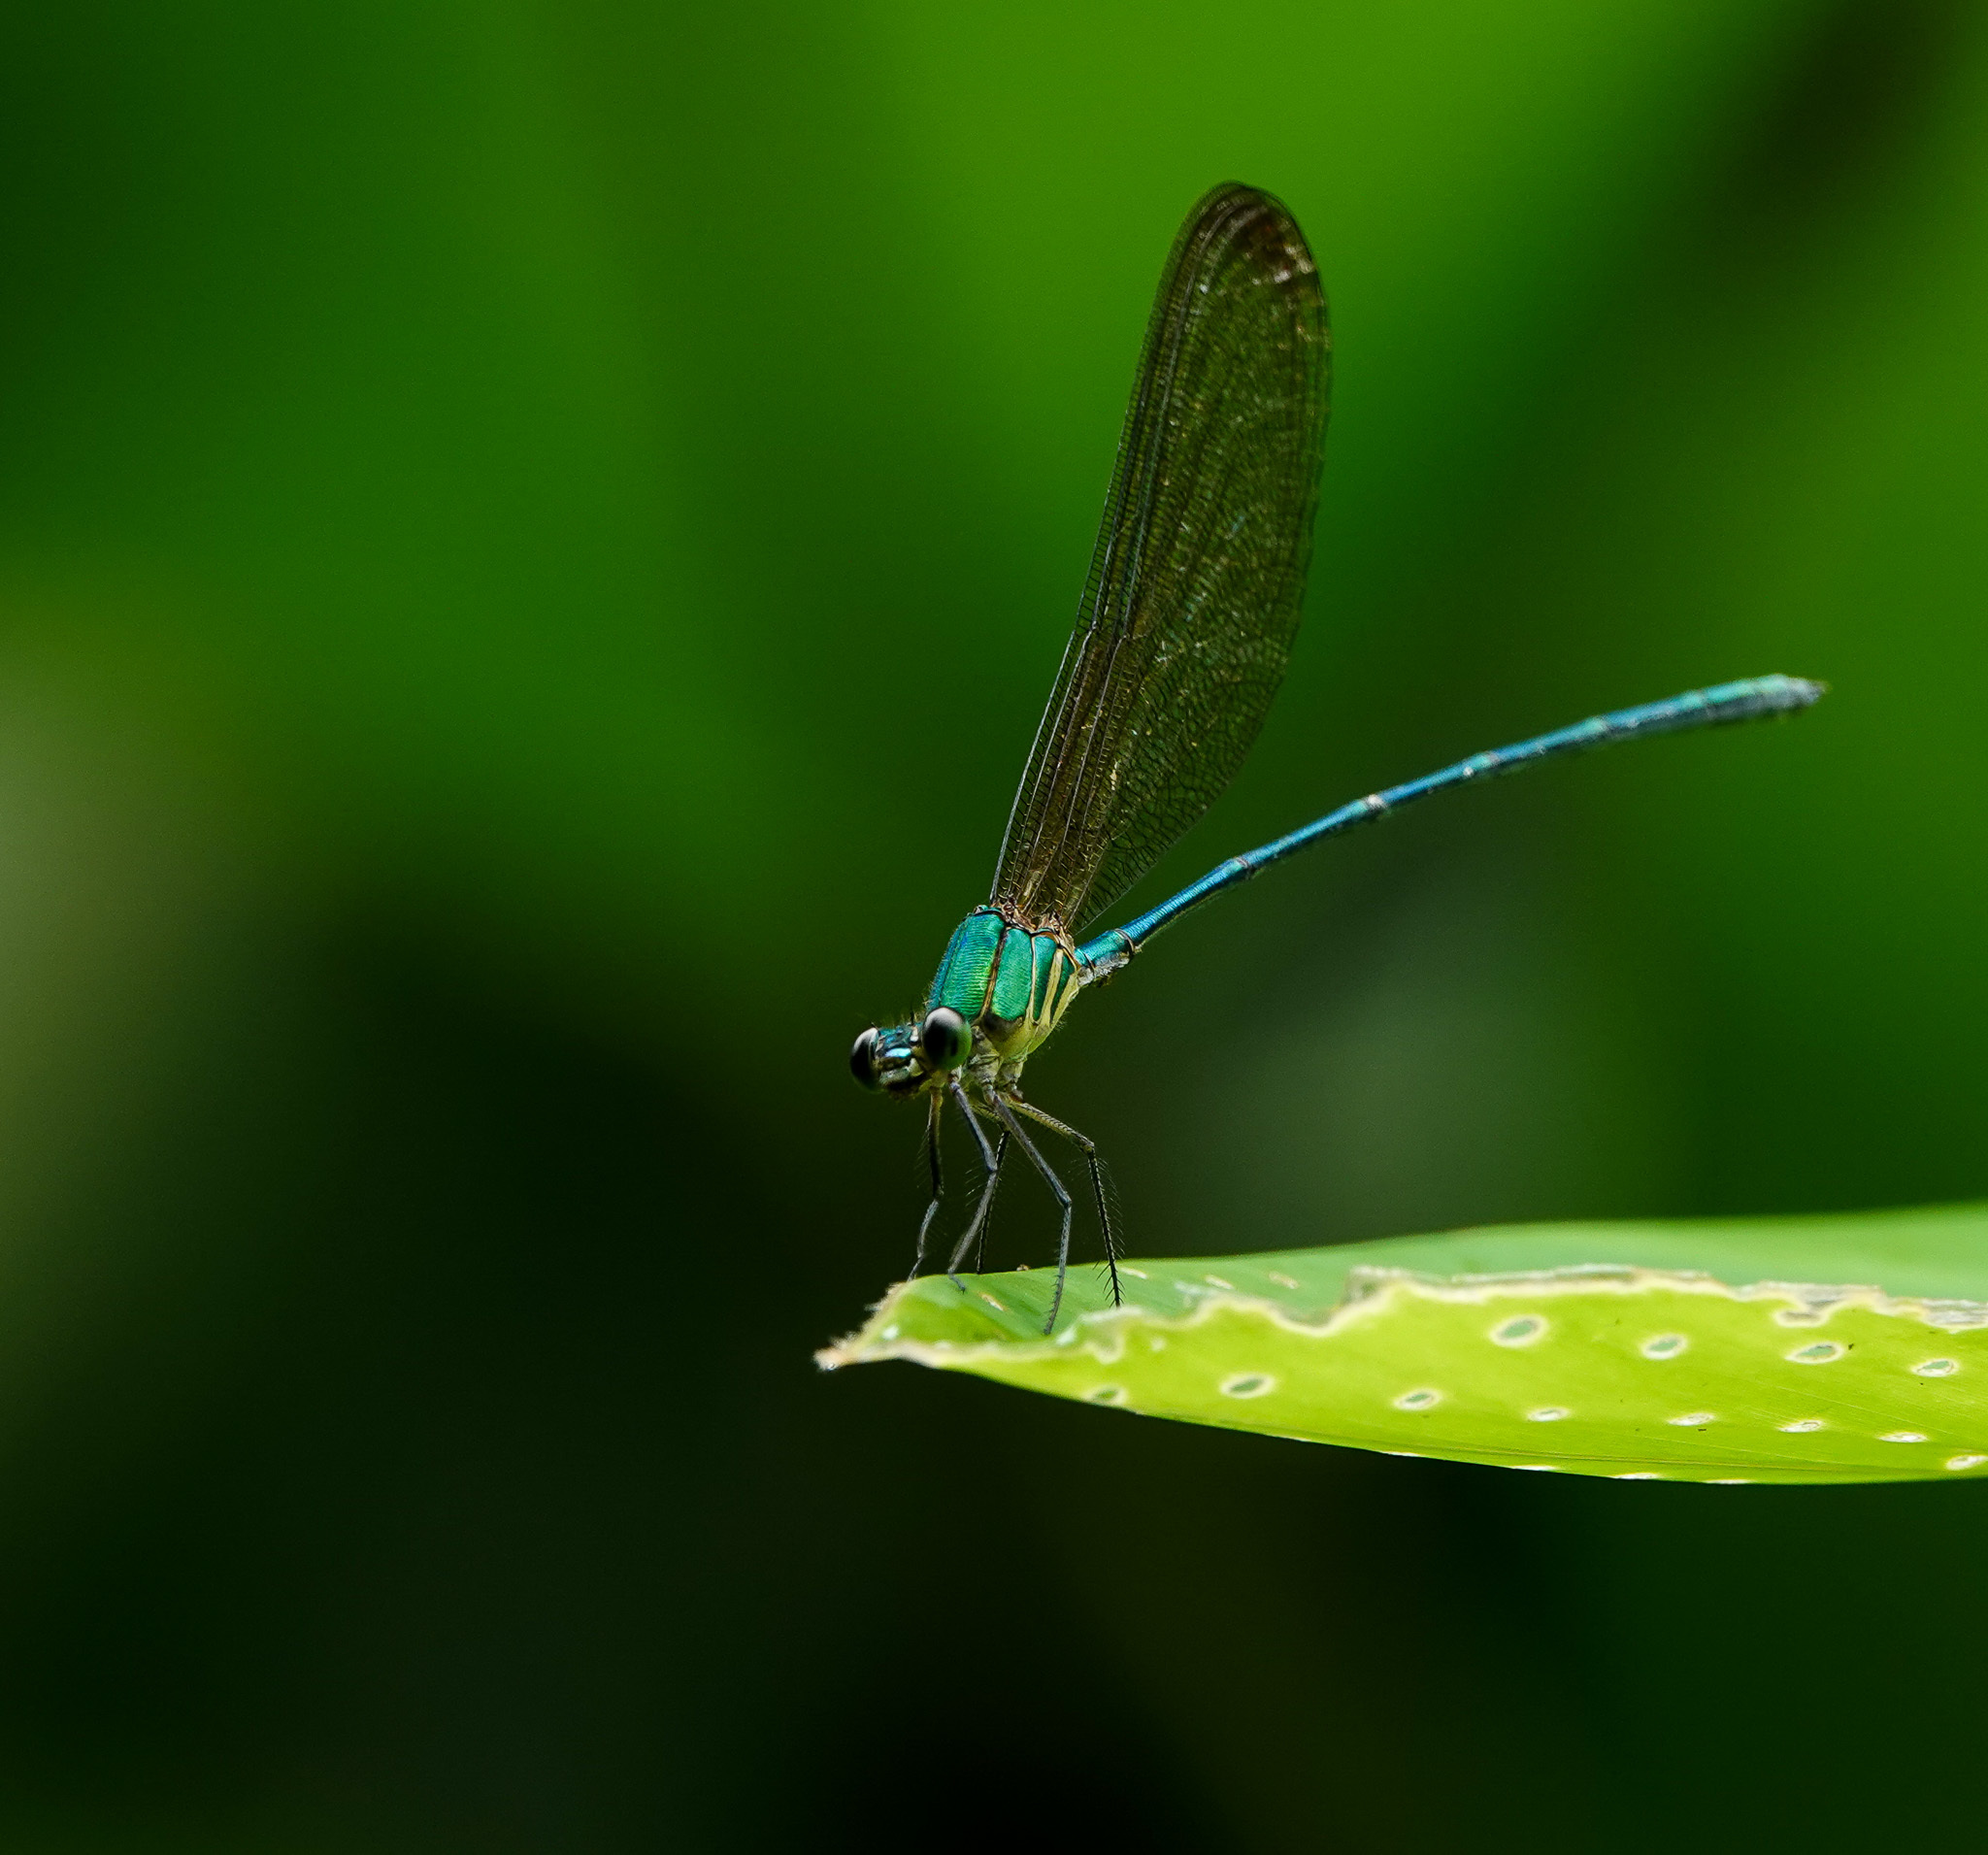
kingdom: Animalia
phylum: Arthropoda
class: Insecta
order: Odonata
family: Calopterygidae
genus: Vestalis
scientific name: Vestalis gracilis
